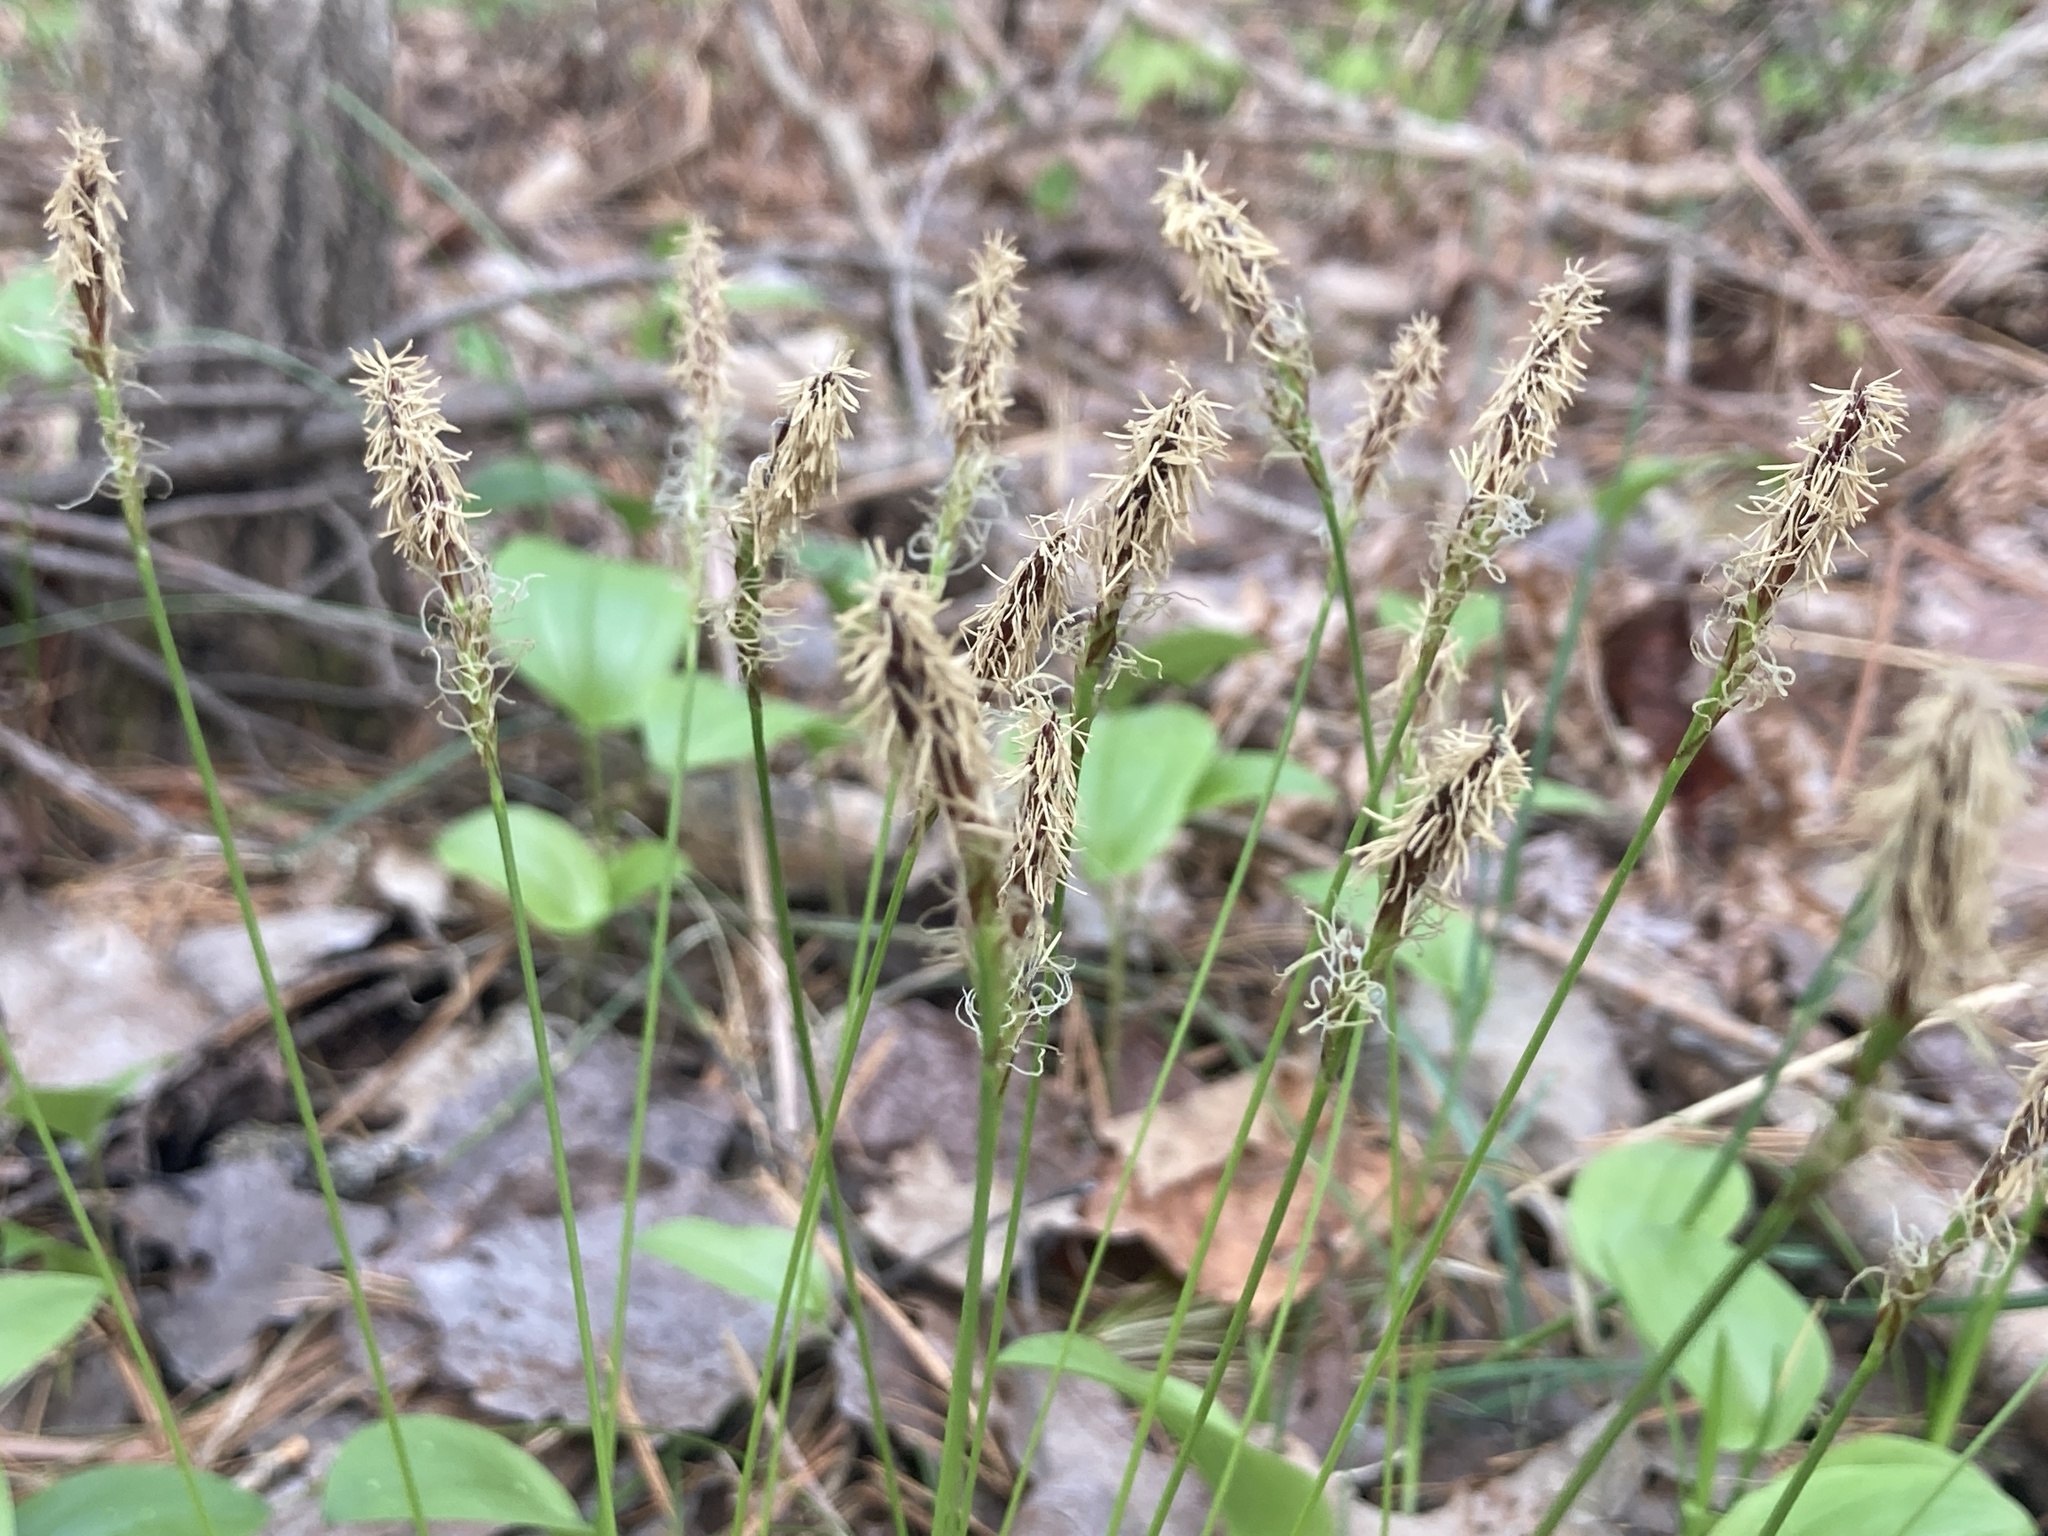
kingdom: Plantae
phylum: Tracheophyta
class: Liliopsida
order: Poales
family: Cyperaceae
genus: Carex
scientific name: Carex pensylvanica
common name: Common oak sedge
